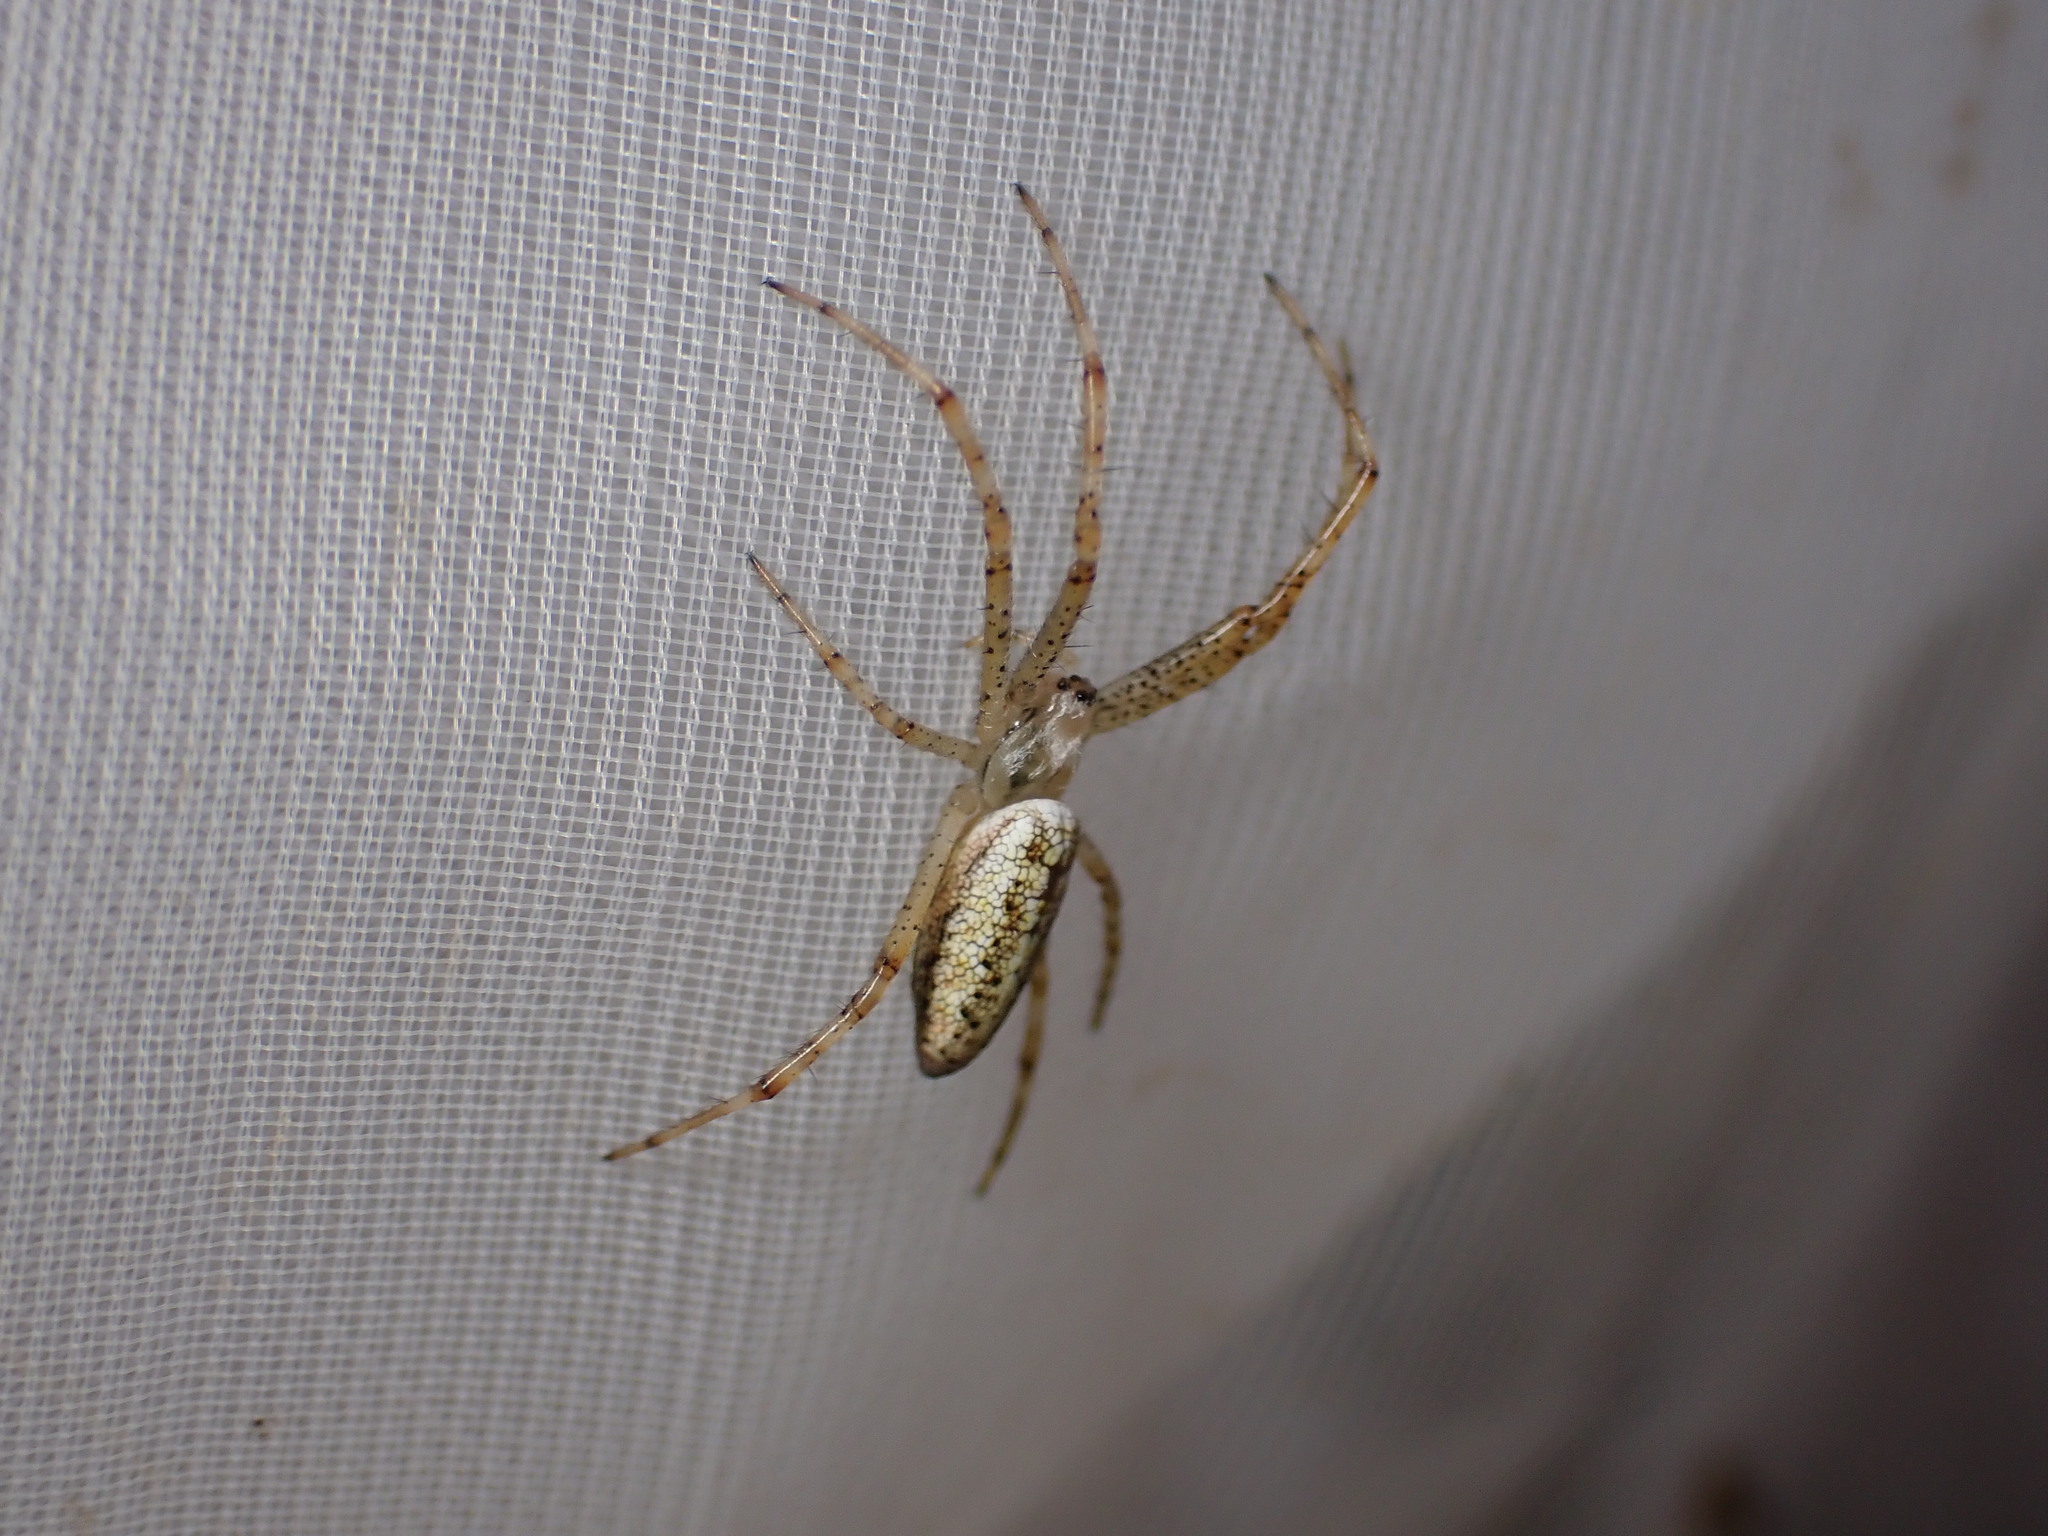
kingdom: Animalia
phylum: Arthropoda
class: Arachnida
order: Araneae
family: Araneidae
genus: Argiope
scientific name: Argiope bruennichi
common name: Wasp spider
